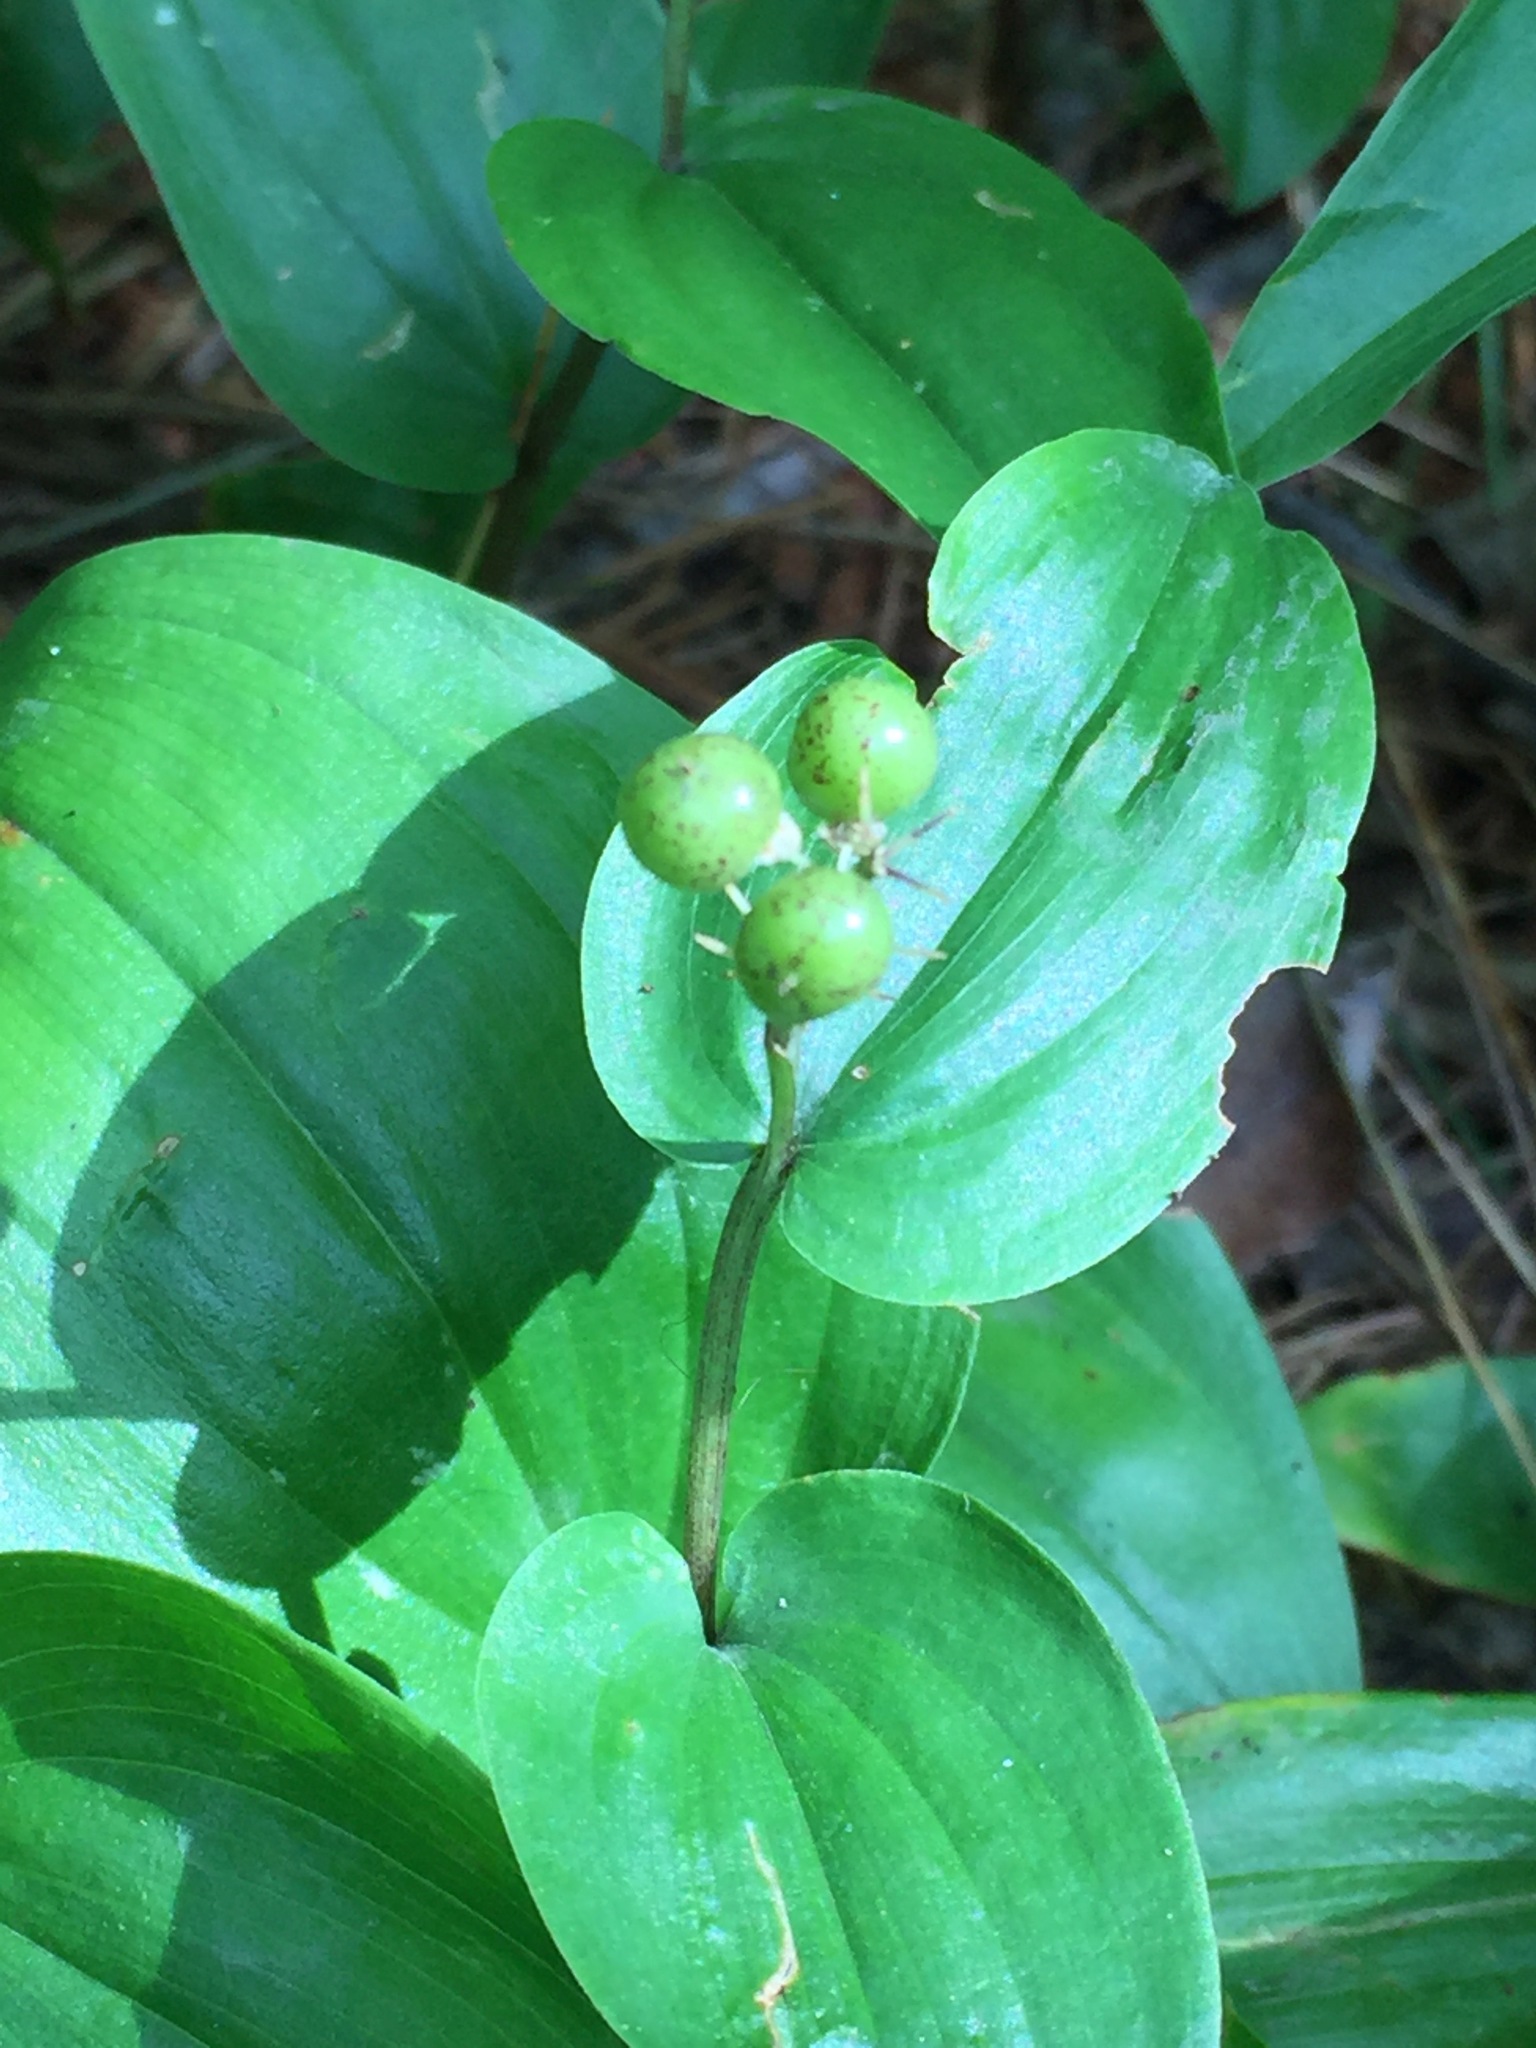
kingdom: Plantae
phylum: Tracheophyta
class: Liliopsida
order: Asparagales
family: Asparagaceae
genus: Maianthemum
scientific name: Maianthemum canadense
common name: False lily-of-the-valley
